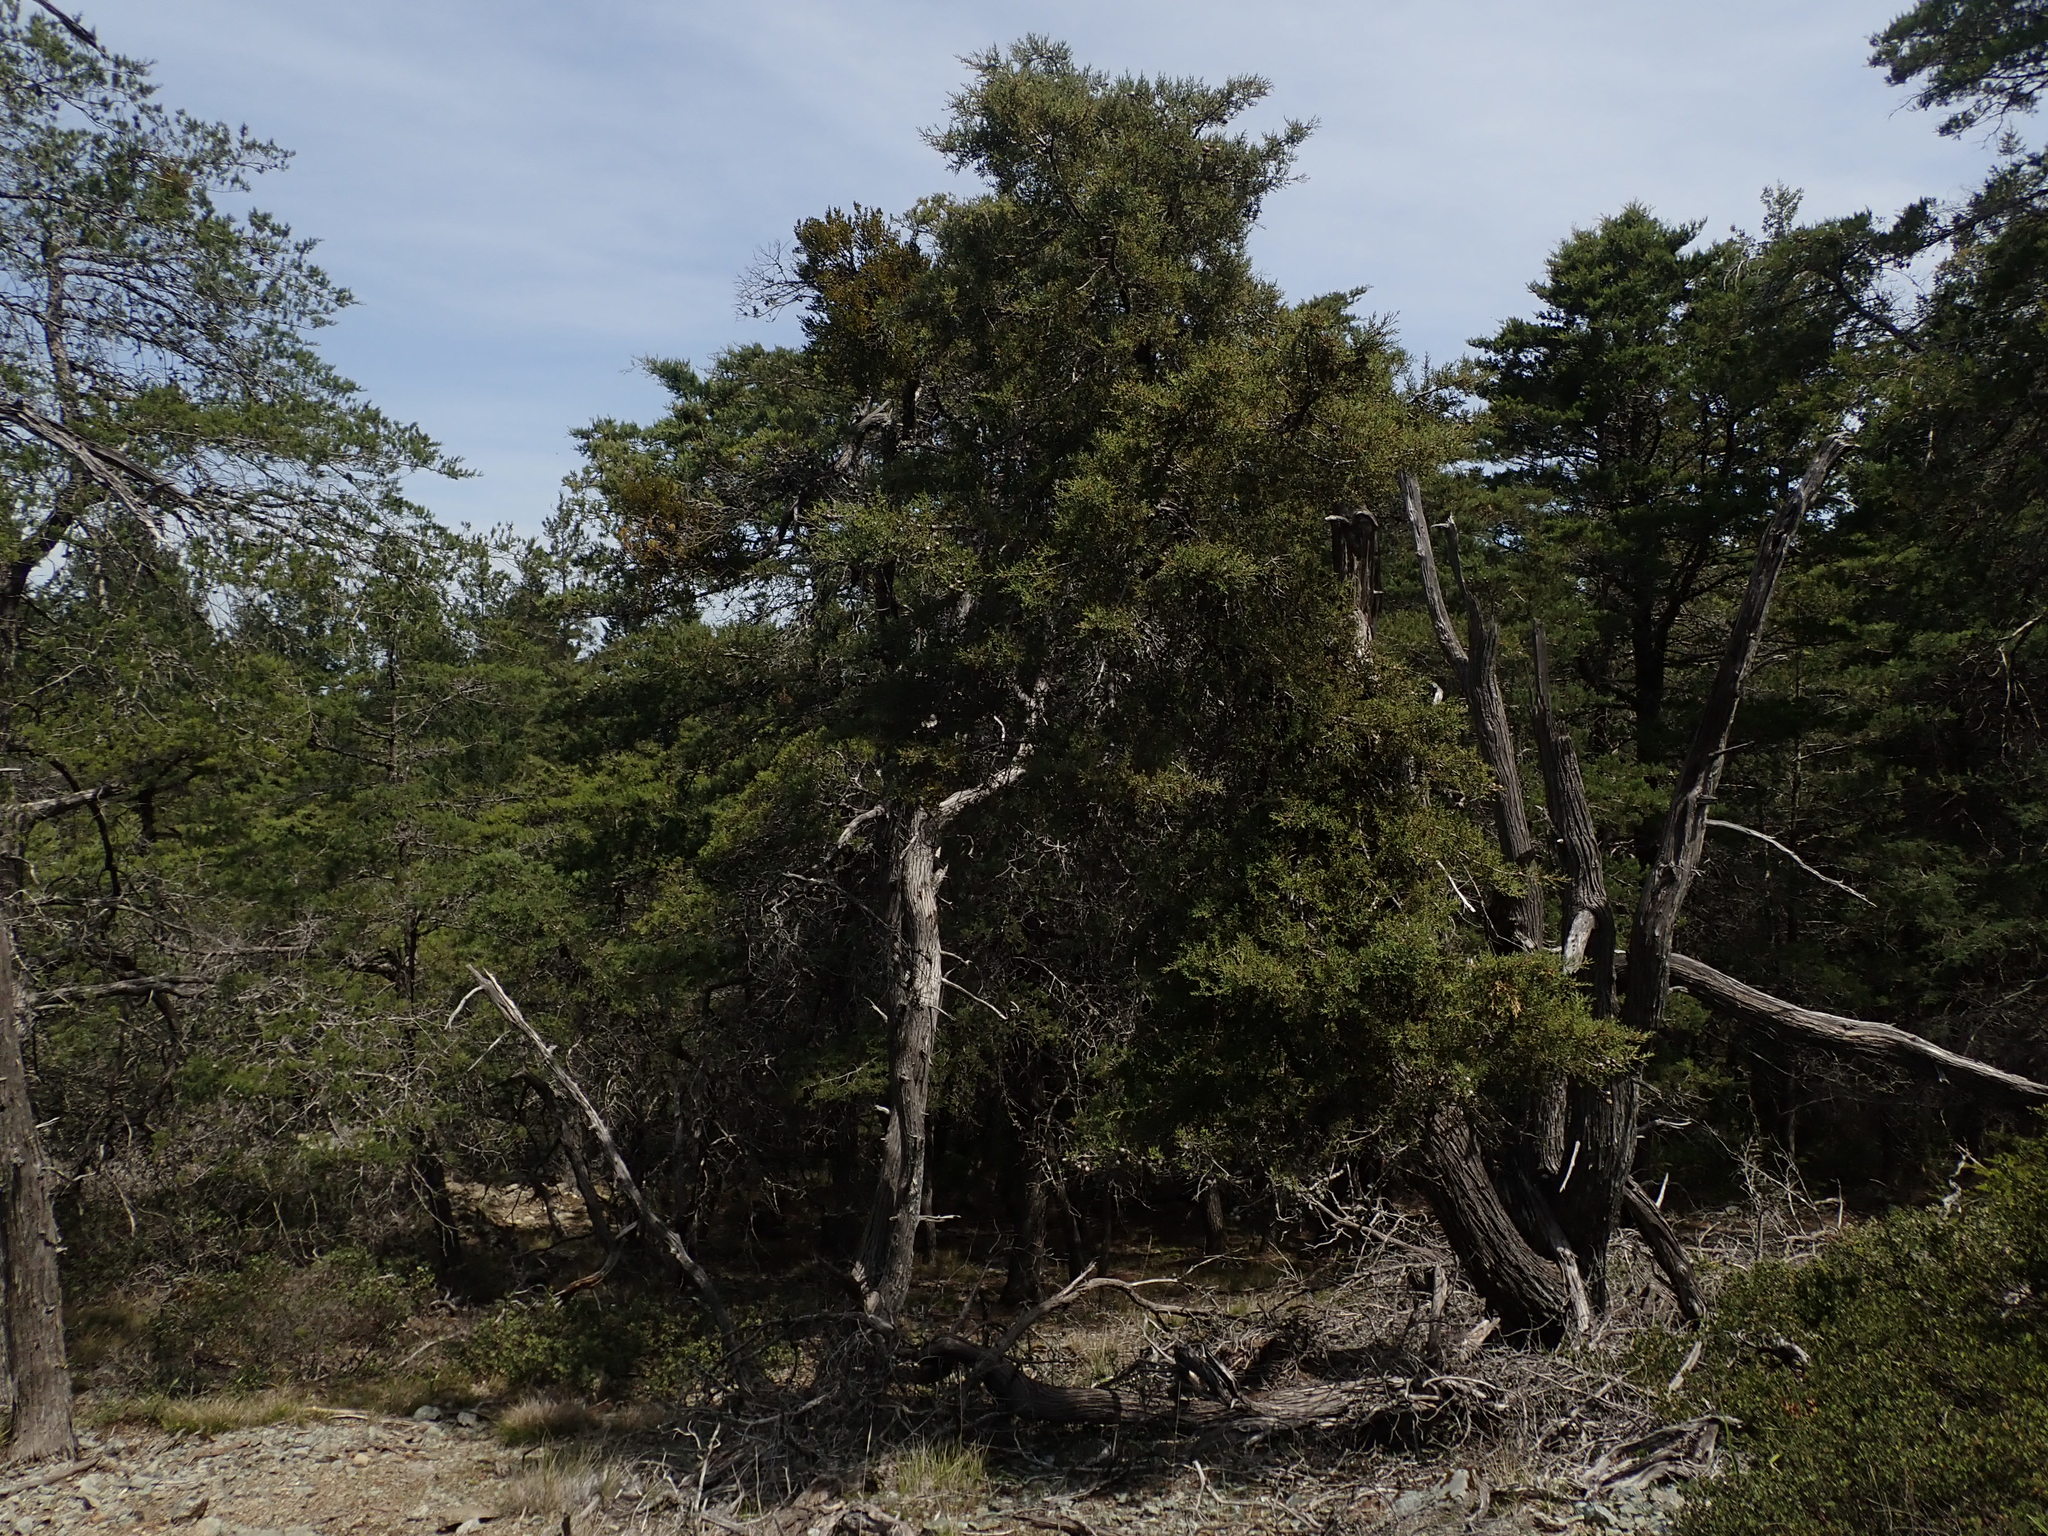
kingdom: Plantae
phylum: Tracheophyta
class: Pinopsida
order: Pinales
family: Cupressaceae
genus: Cupressus
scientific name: Cupressus sargentii
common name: Sargent cypress
